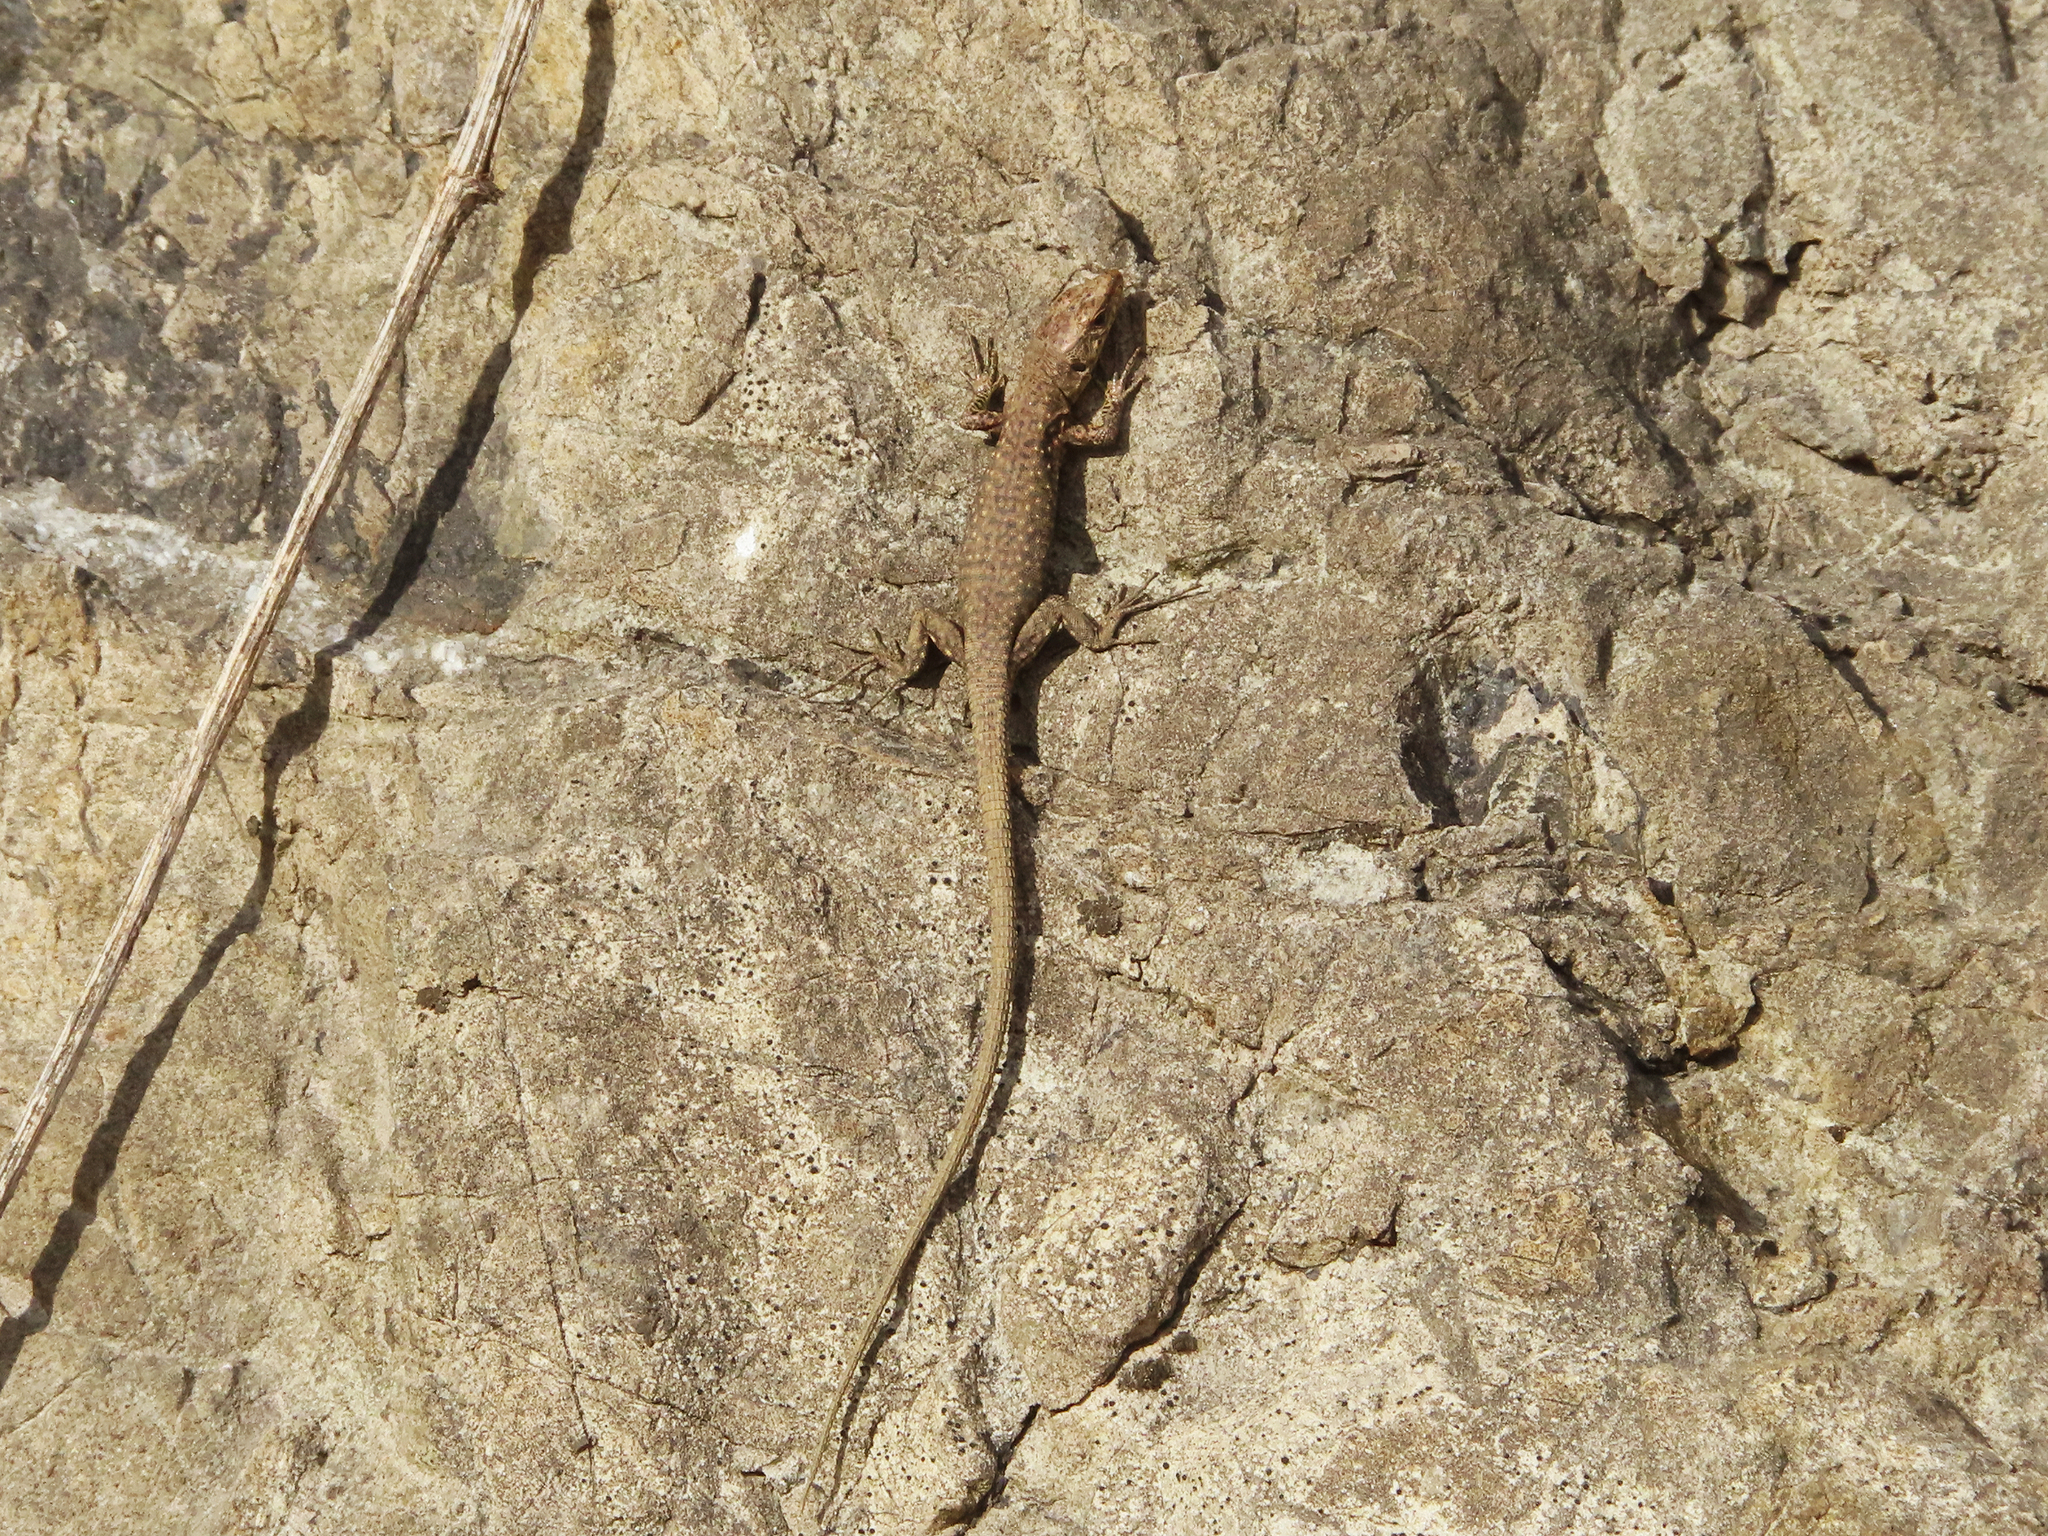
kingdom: Animalia
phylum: Chordata
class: Squamata
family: Lacertidae
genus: Darevskia
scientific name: Darevskia bithynica
